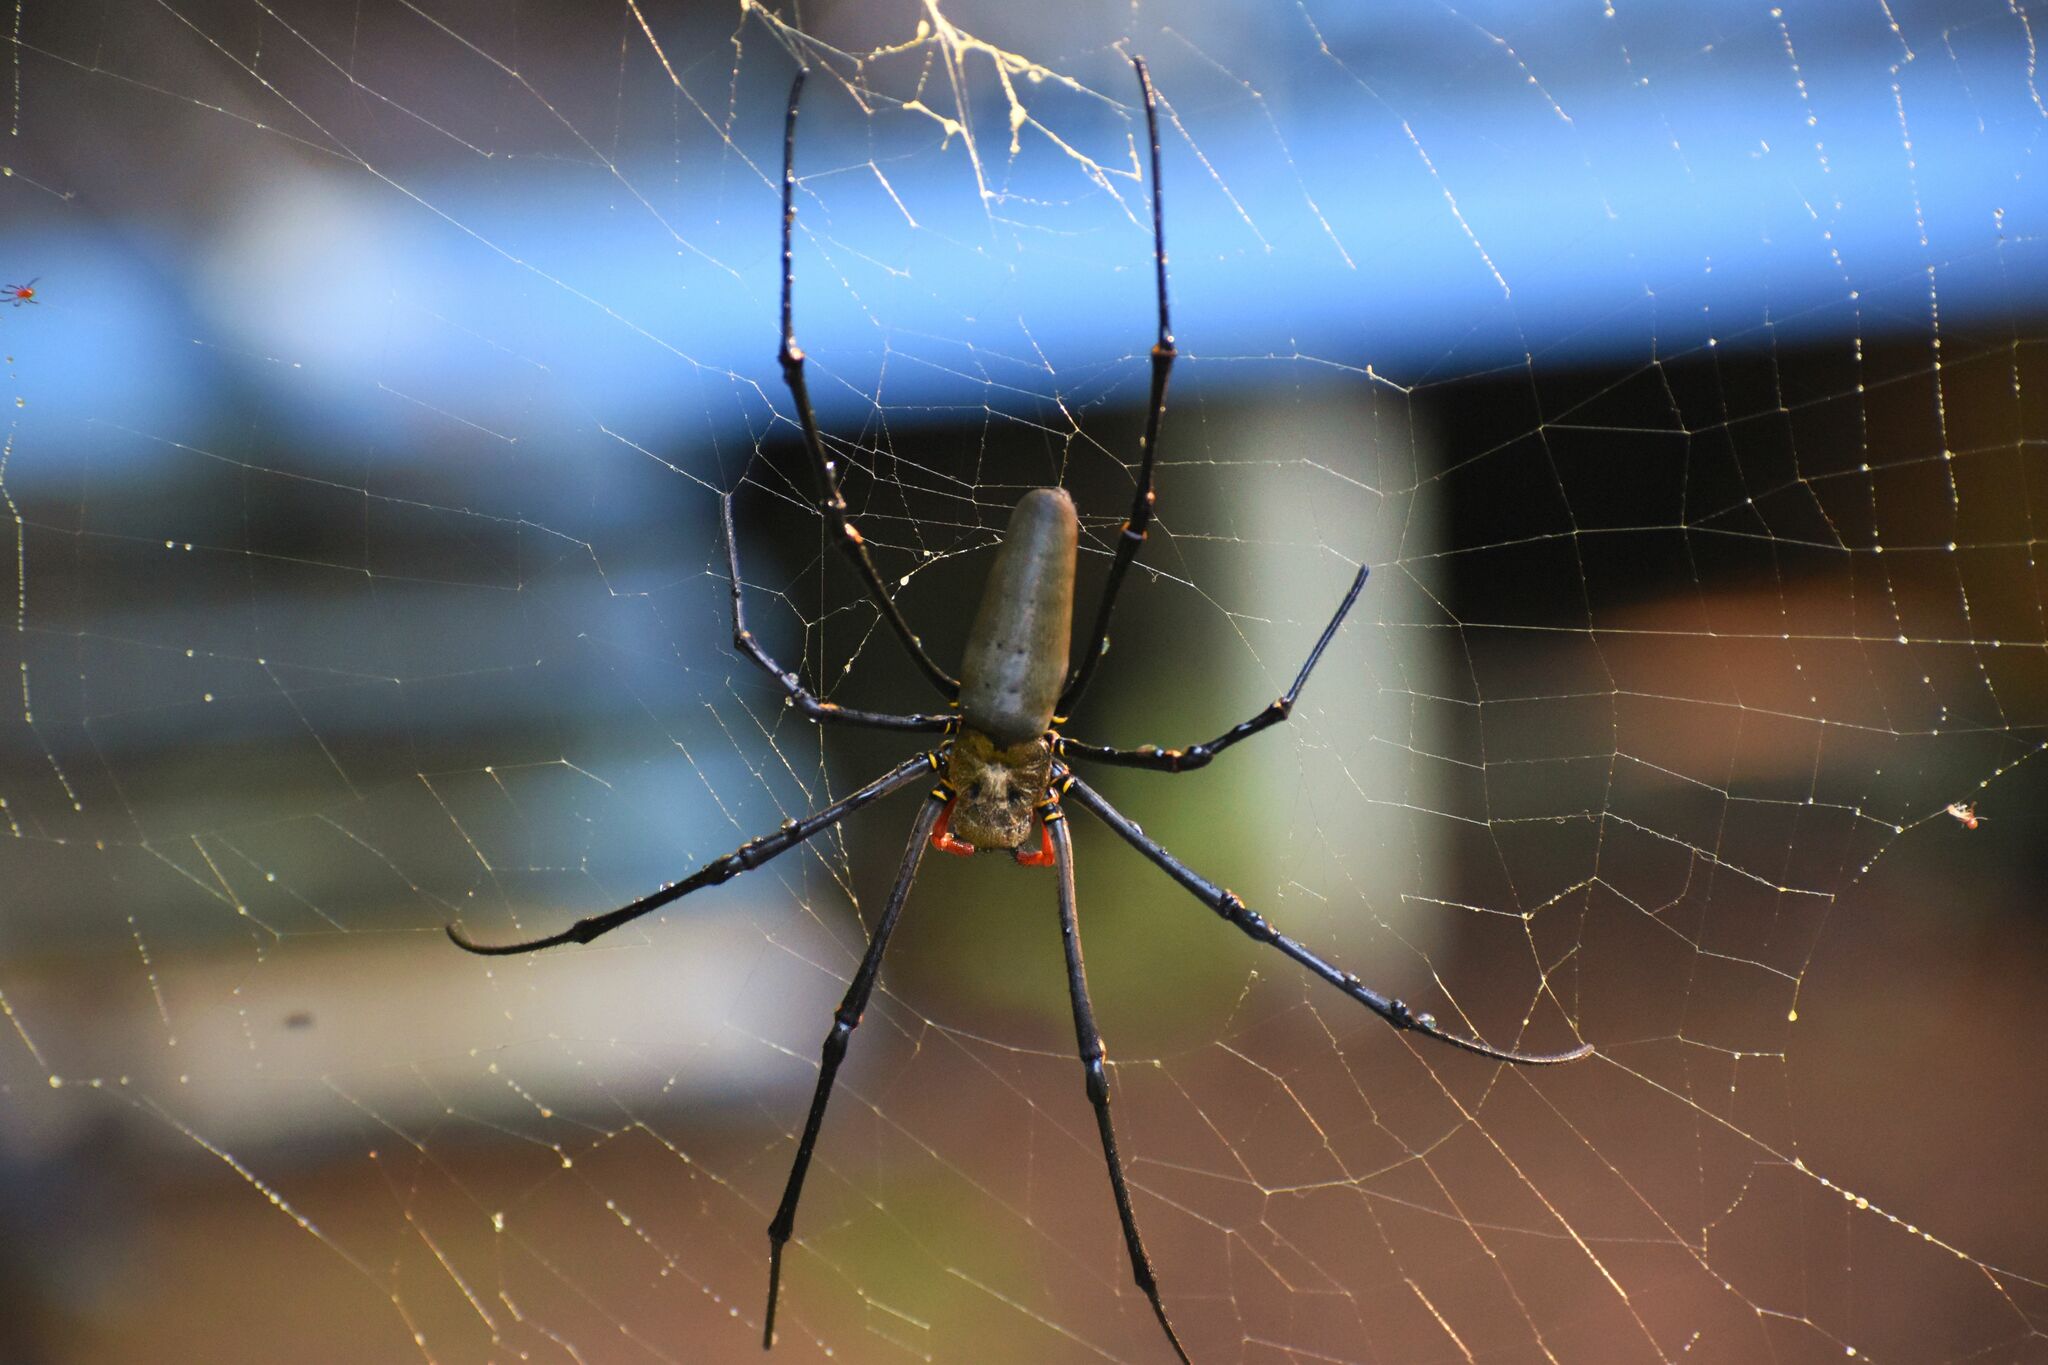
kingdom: Animalia
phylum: Arthropoda
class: Arachnida
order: Araneae
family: Araneidae
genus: Nephila
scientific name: Nephila pilipes
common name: Giant golden orb weaver
